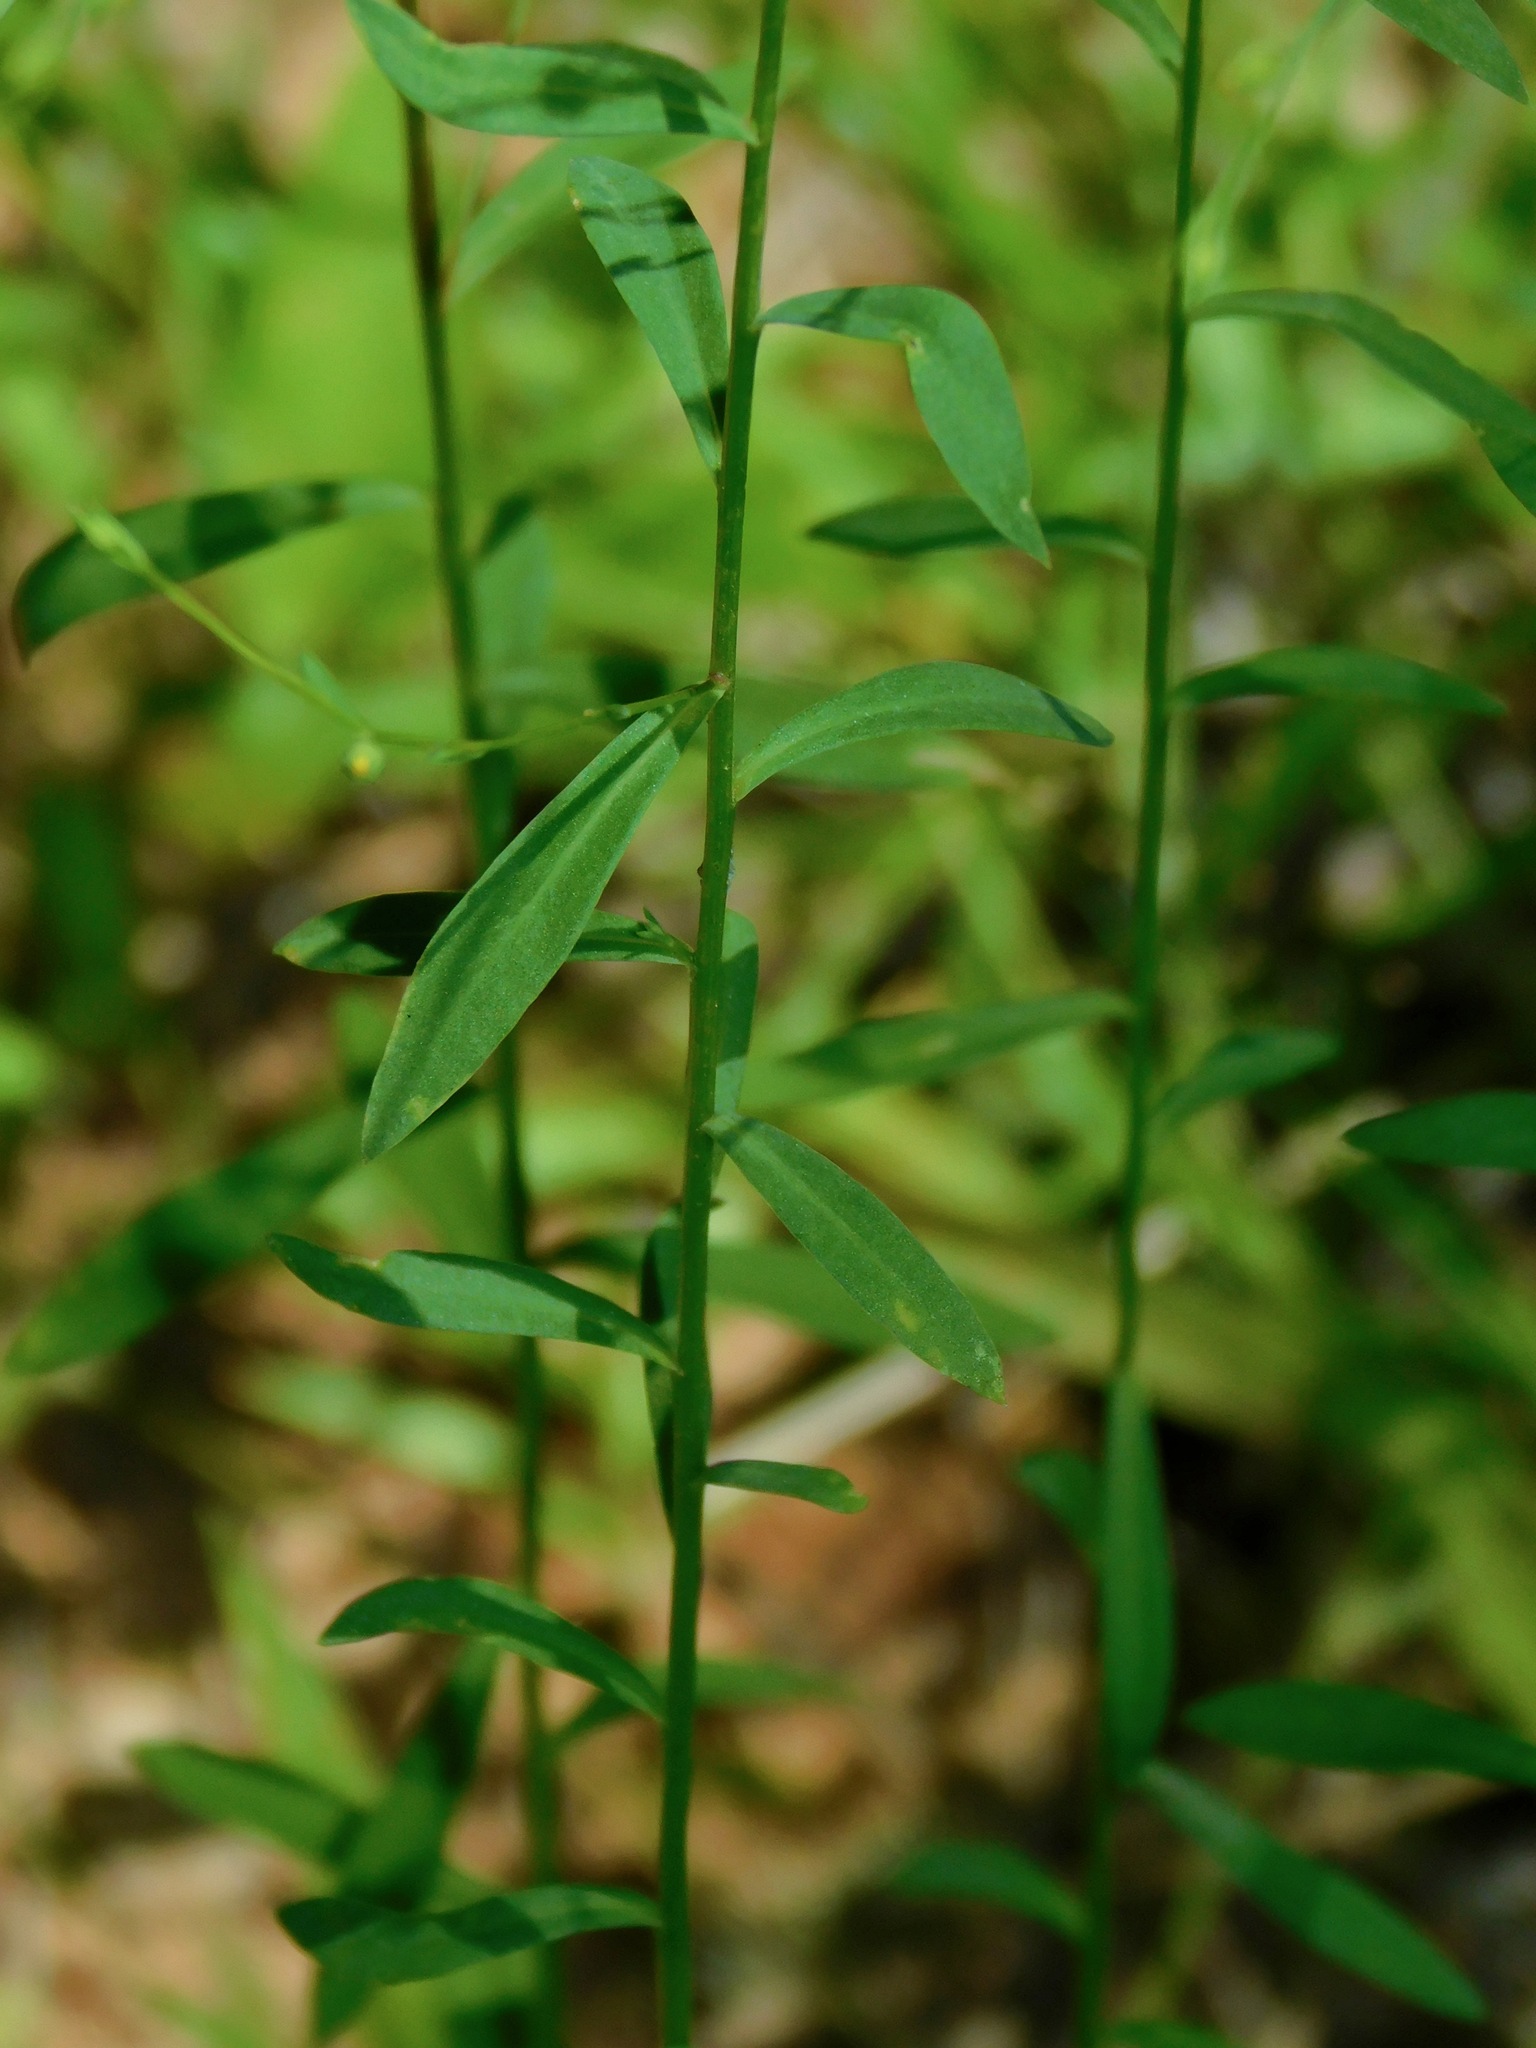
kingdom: Plantae
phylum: Tracheophyta
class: Magnoliopsida
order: Malpighiales
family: Linaceae
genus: Linum
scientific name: Linum virginianum
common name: Slender yellow flax
